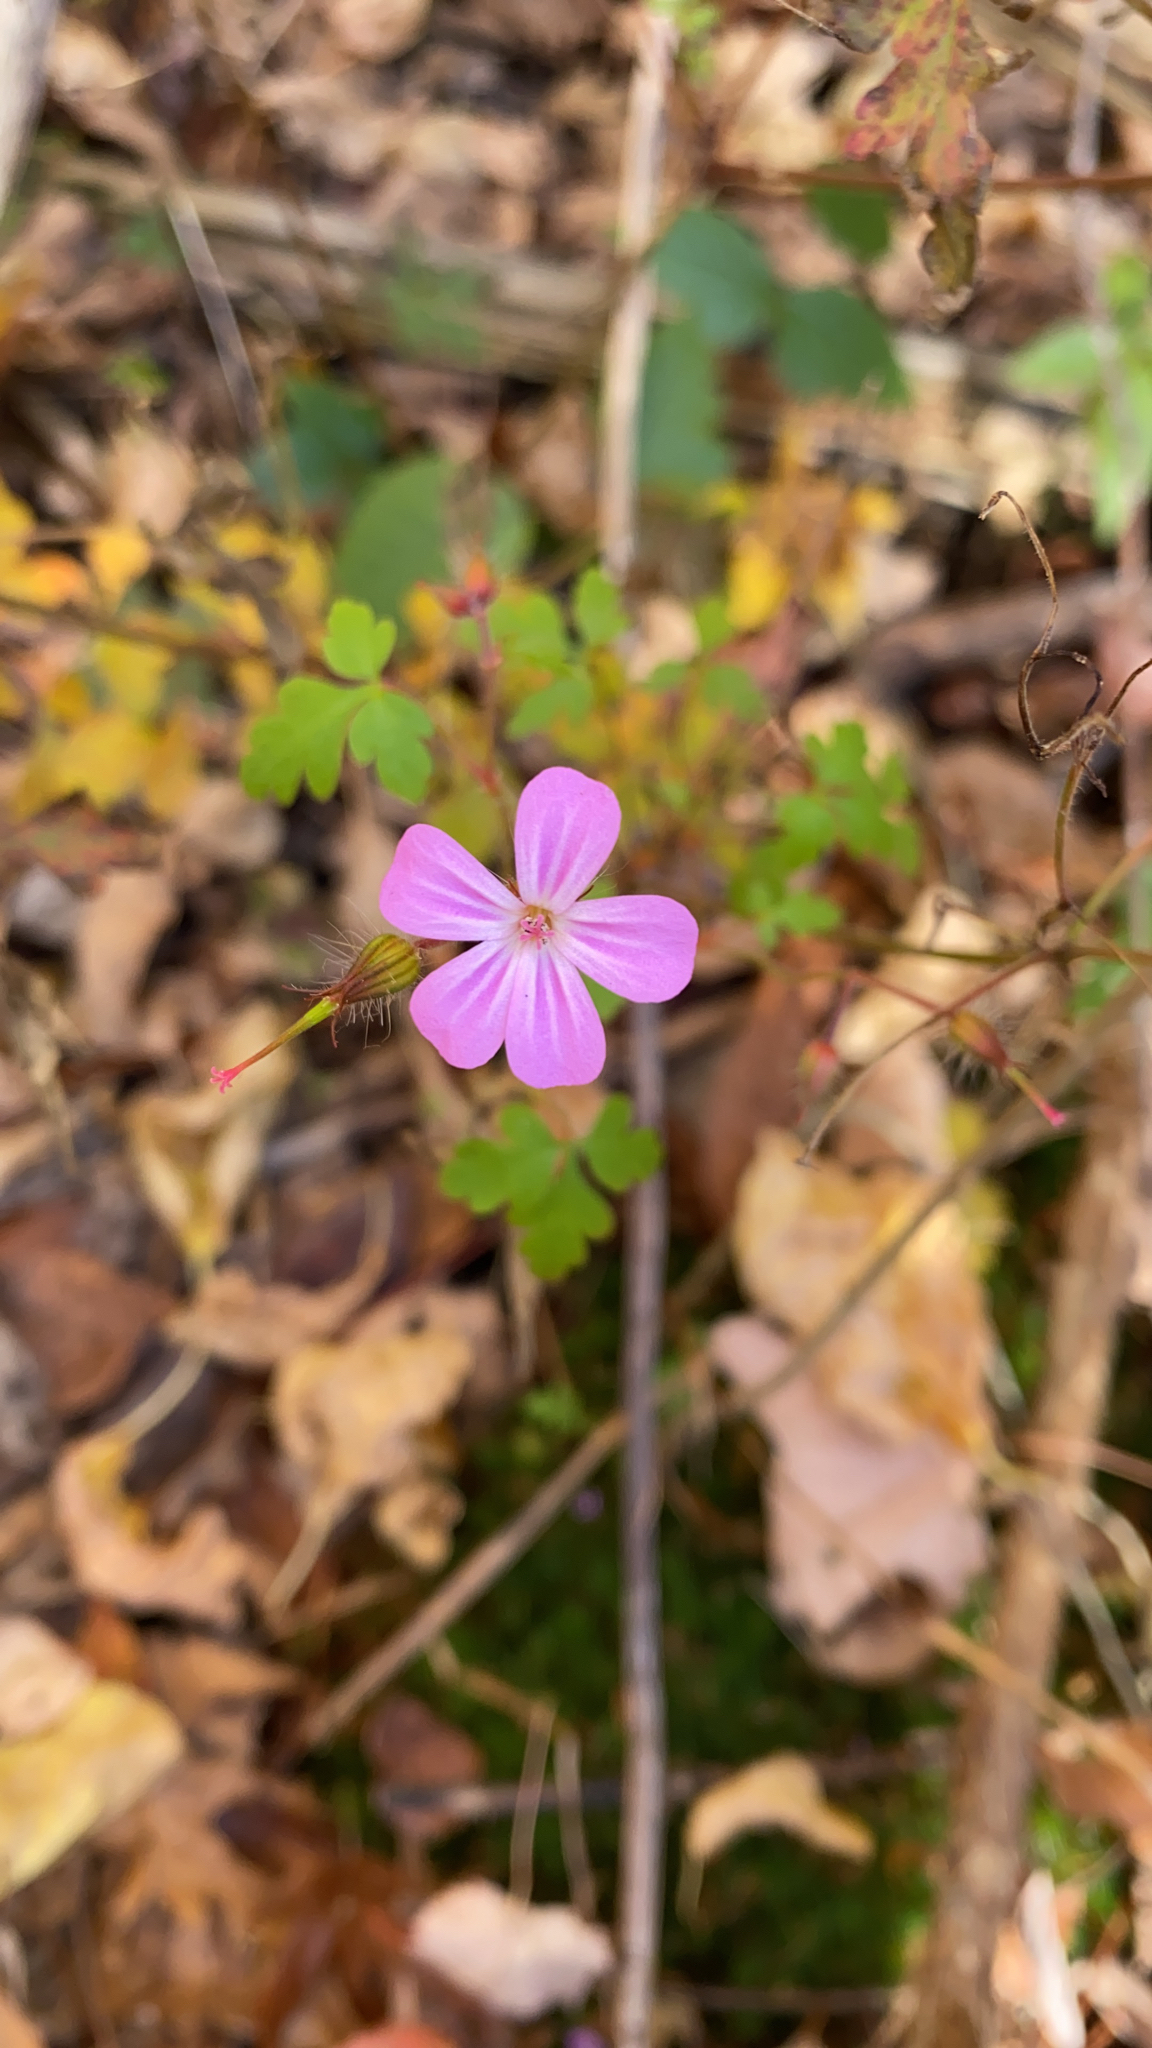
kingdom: Plantae
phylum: Tracheophyta
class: Magnoliopsida
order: Geraniales
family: Geraniaceae
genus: Geranium
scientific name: Geranium robertianum
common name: Herb-robert
